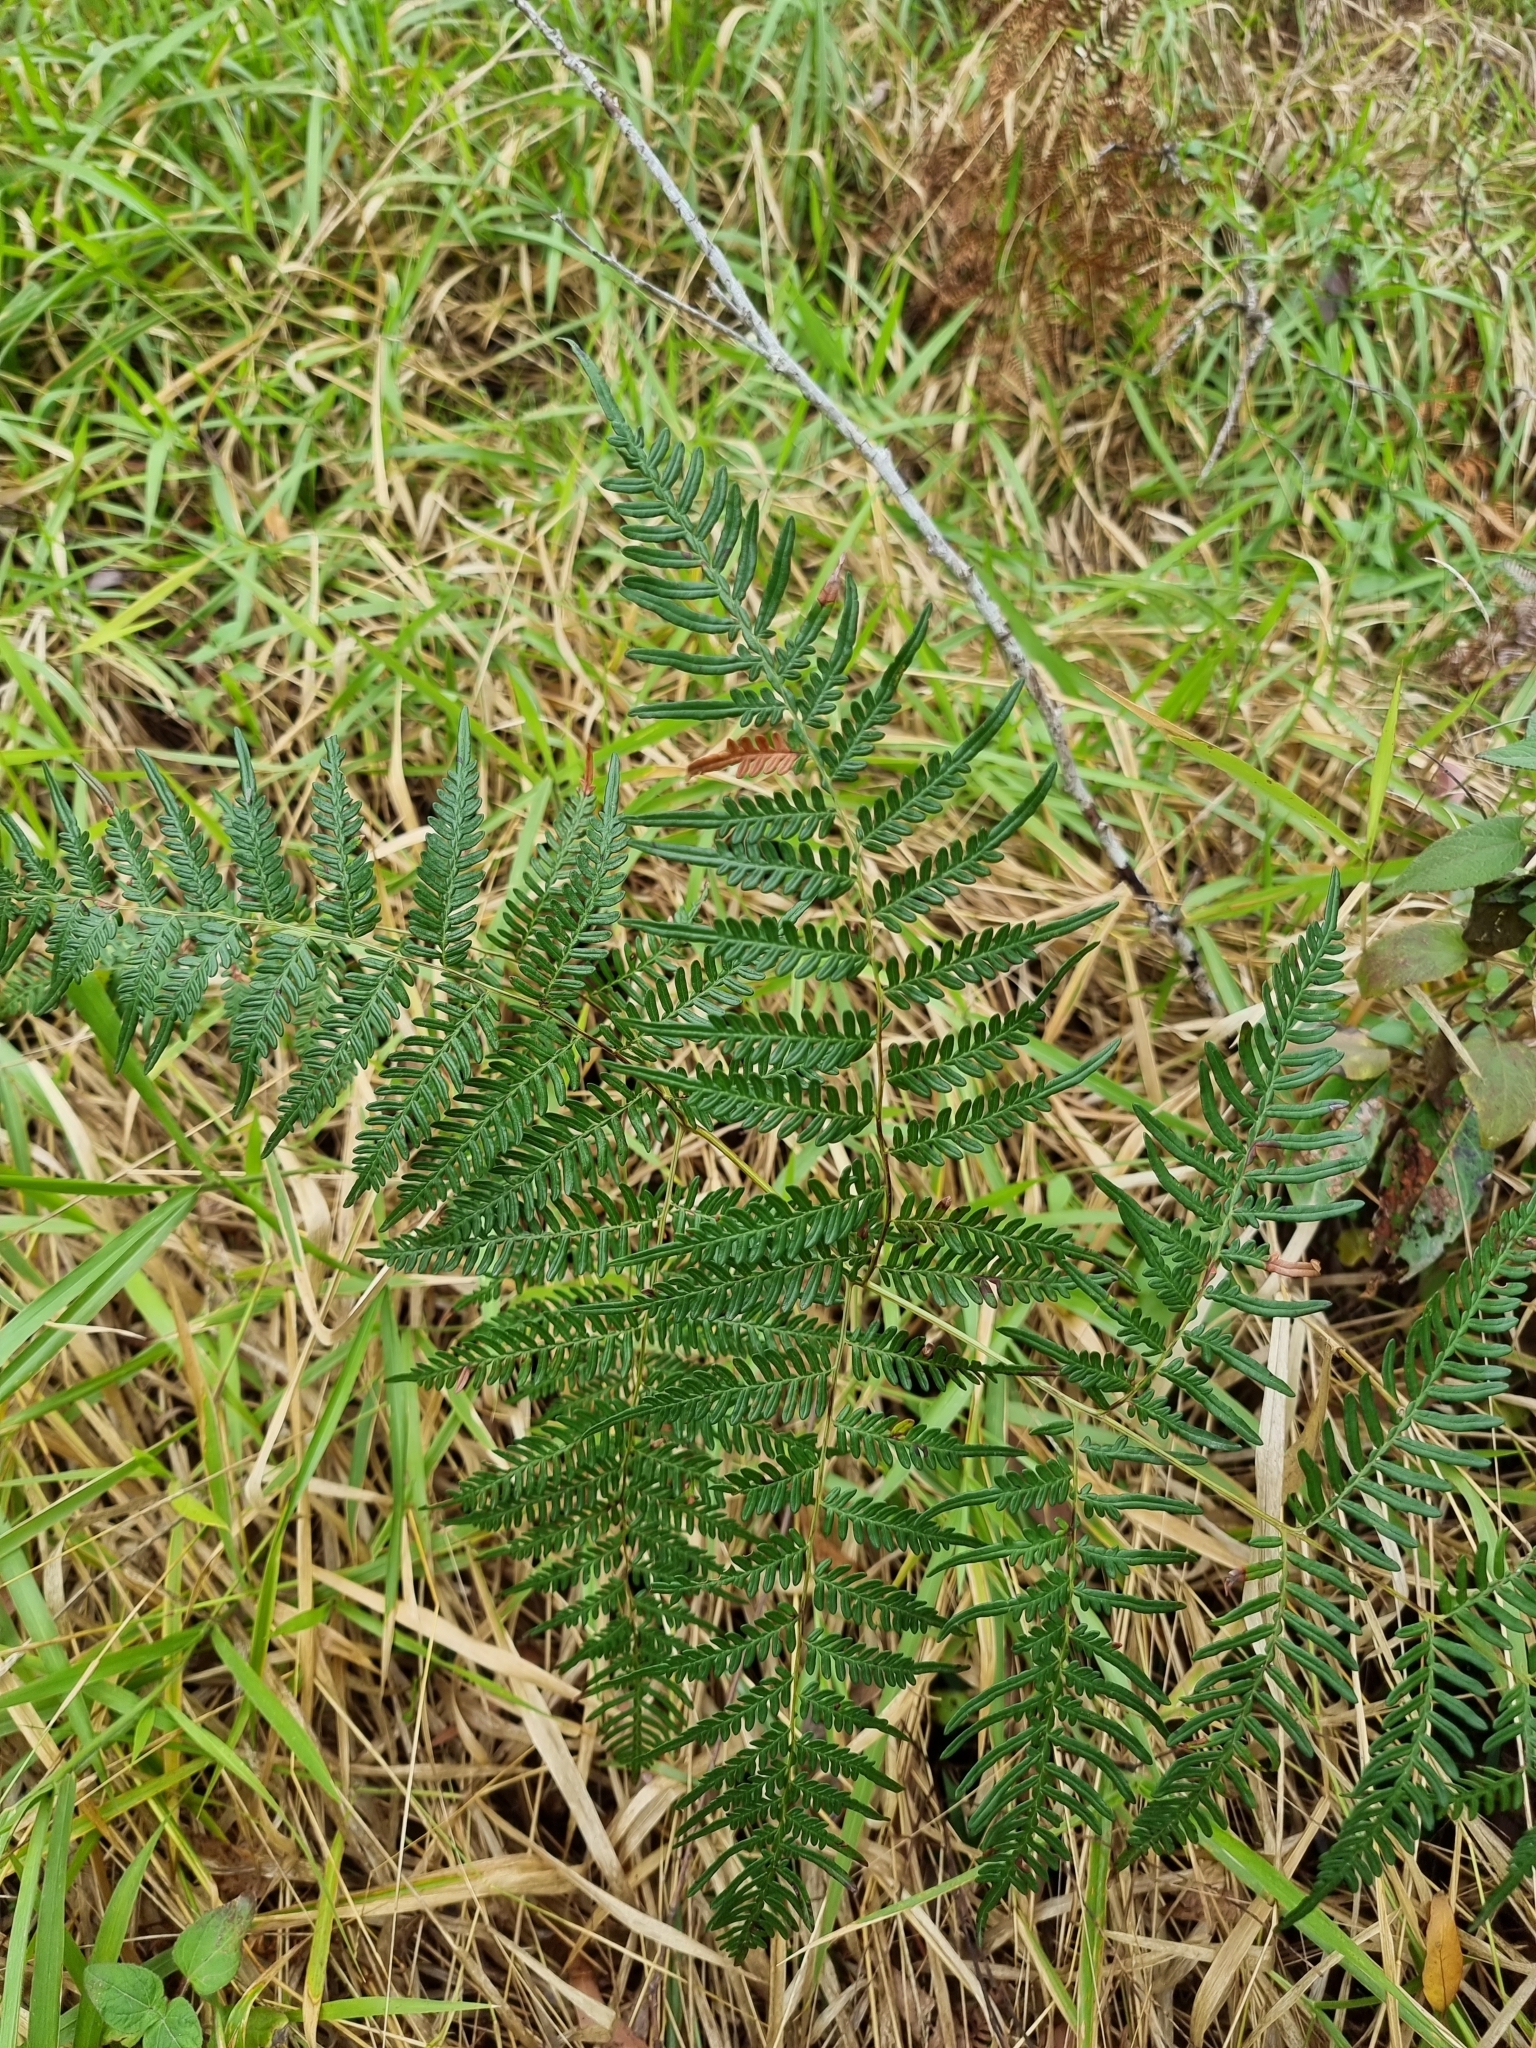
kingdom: Plantae
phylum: Tracheophyta
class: Polypodiopsida
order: Polypodiales
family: Dennstaedtiaceae
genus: Pteridium
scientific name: Pteridium esculentum
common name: Bracken fern
